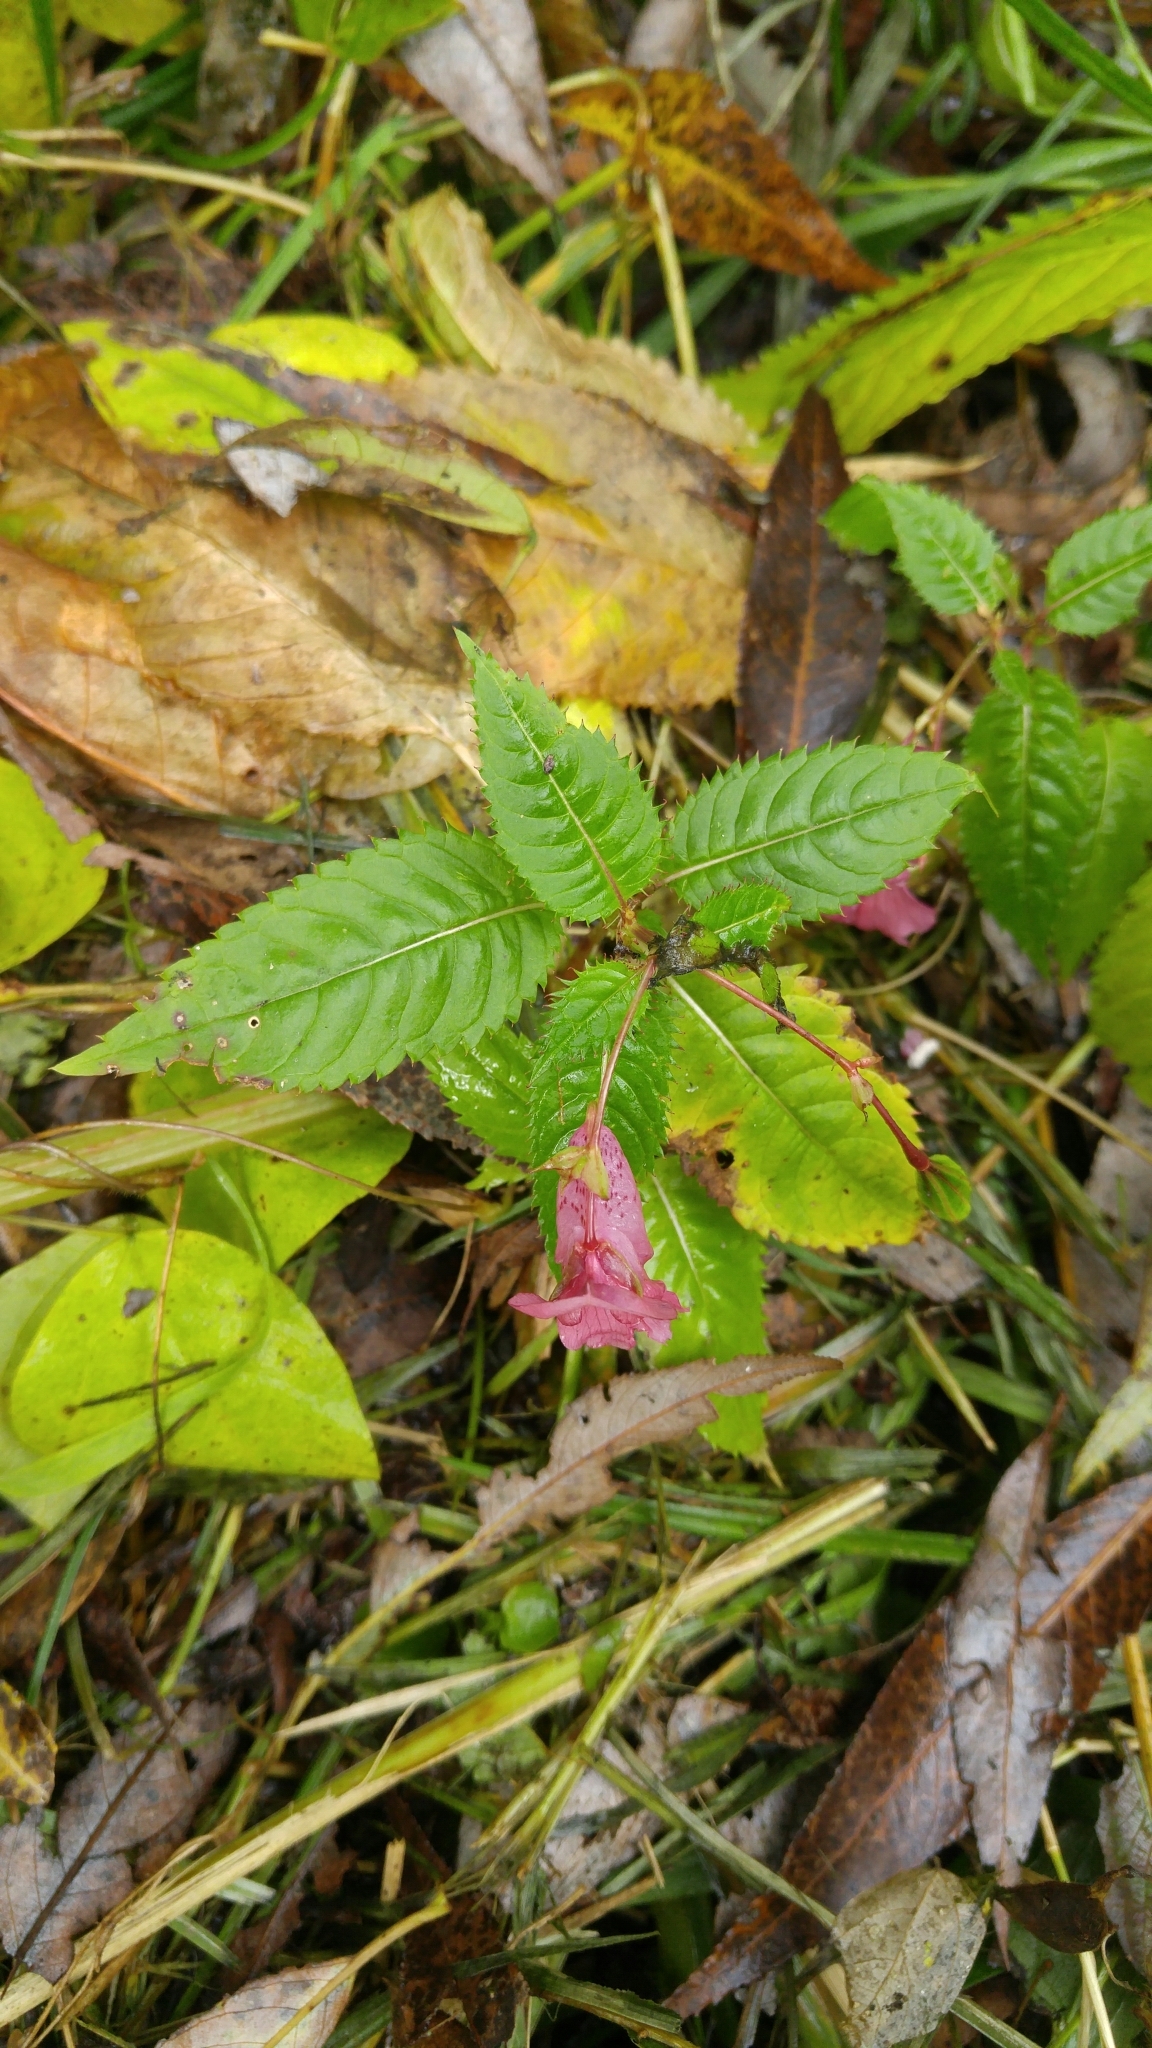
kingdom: Plantae
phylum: Tracheophyta
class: Magnoliopsida
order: Ericales
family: Balsaminaceae
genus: Impatiens
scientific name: Impatiens glandulifera
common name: Himalayan balsam
